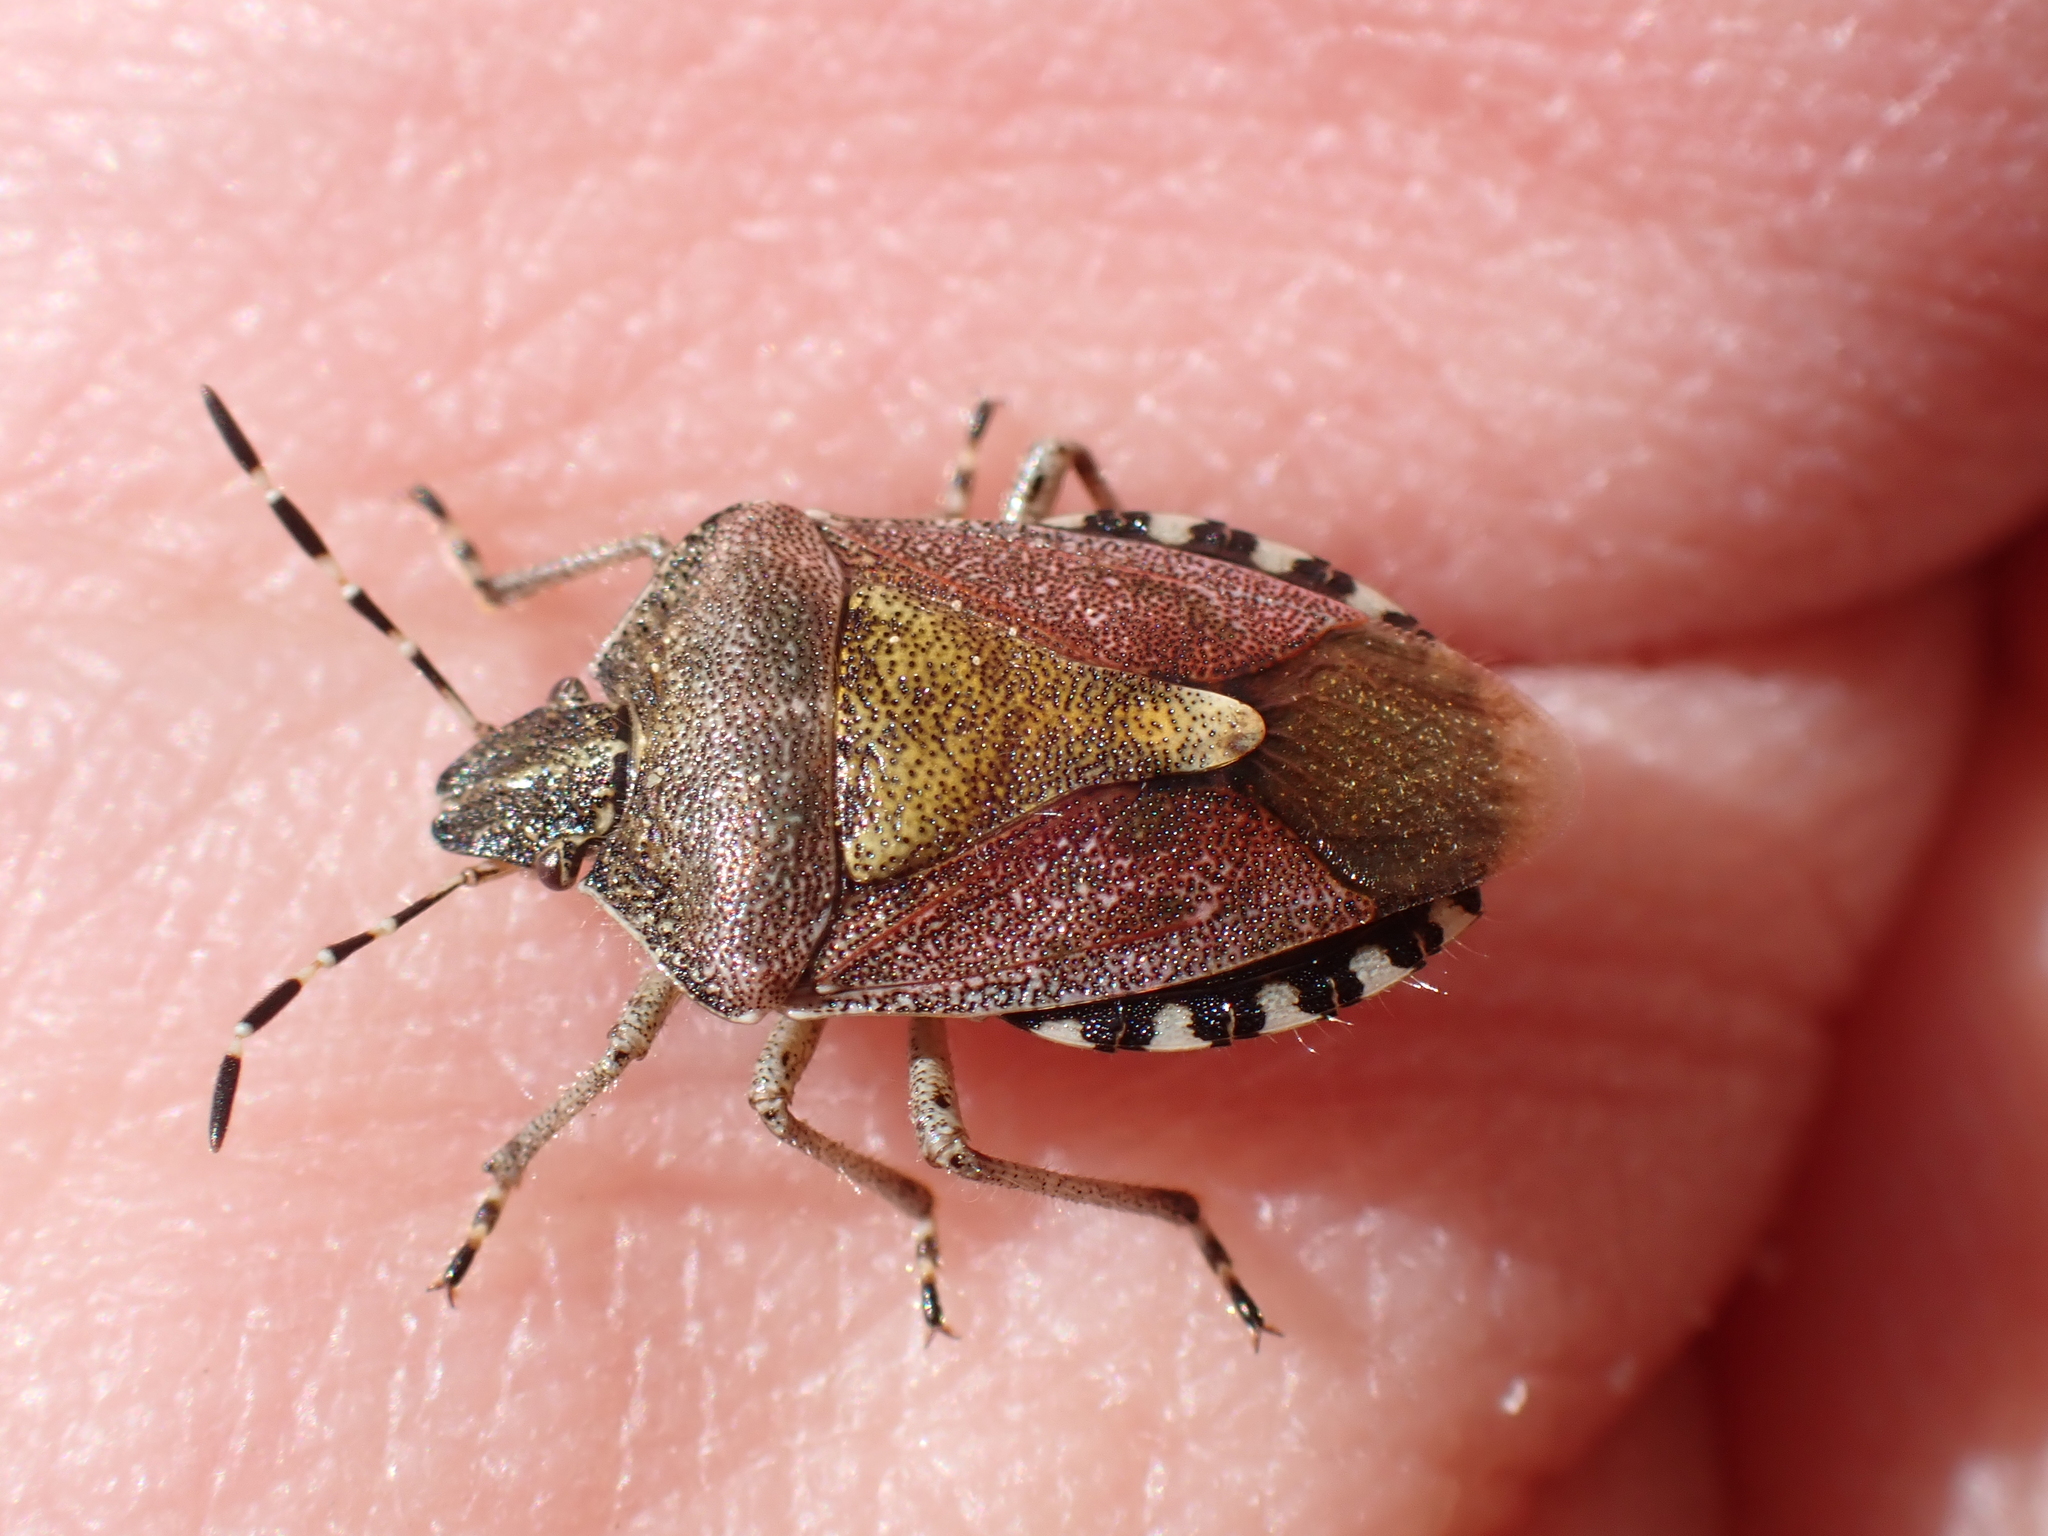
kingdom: Animalia
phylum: Arthropoda
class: Insecta
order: Hemiptera
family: Pentatomidae
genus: Dolycoris
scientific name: Dolycoris baccarum
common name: Sloe bug
